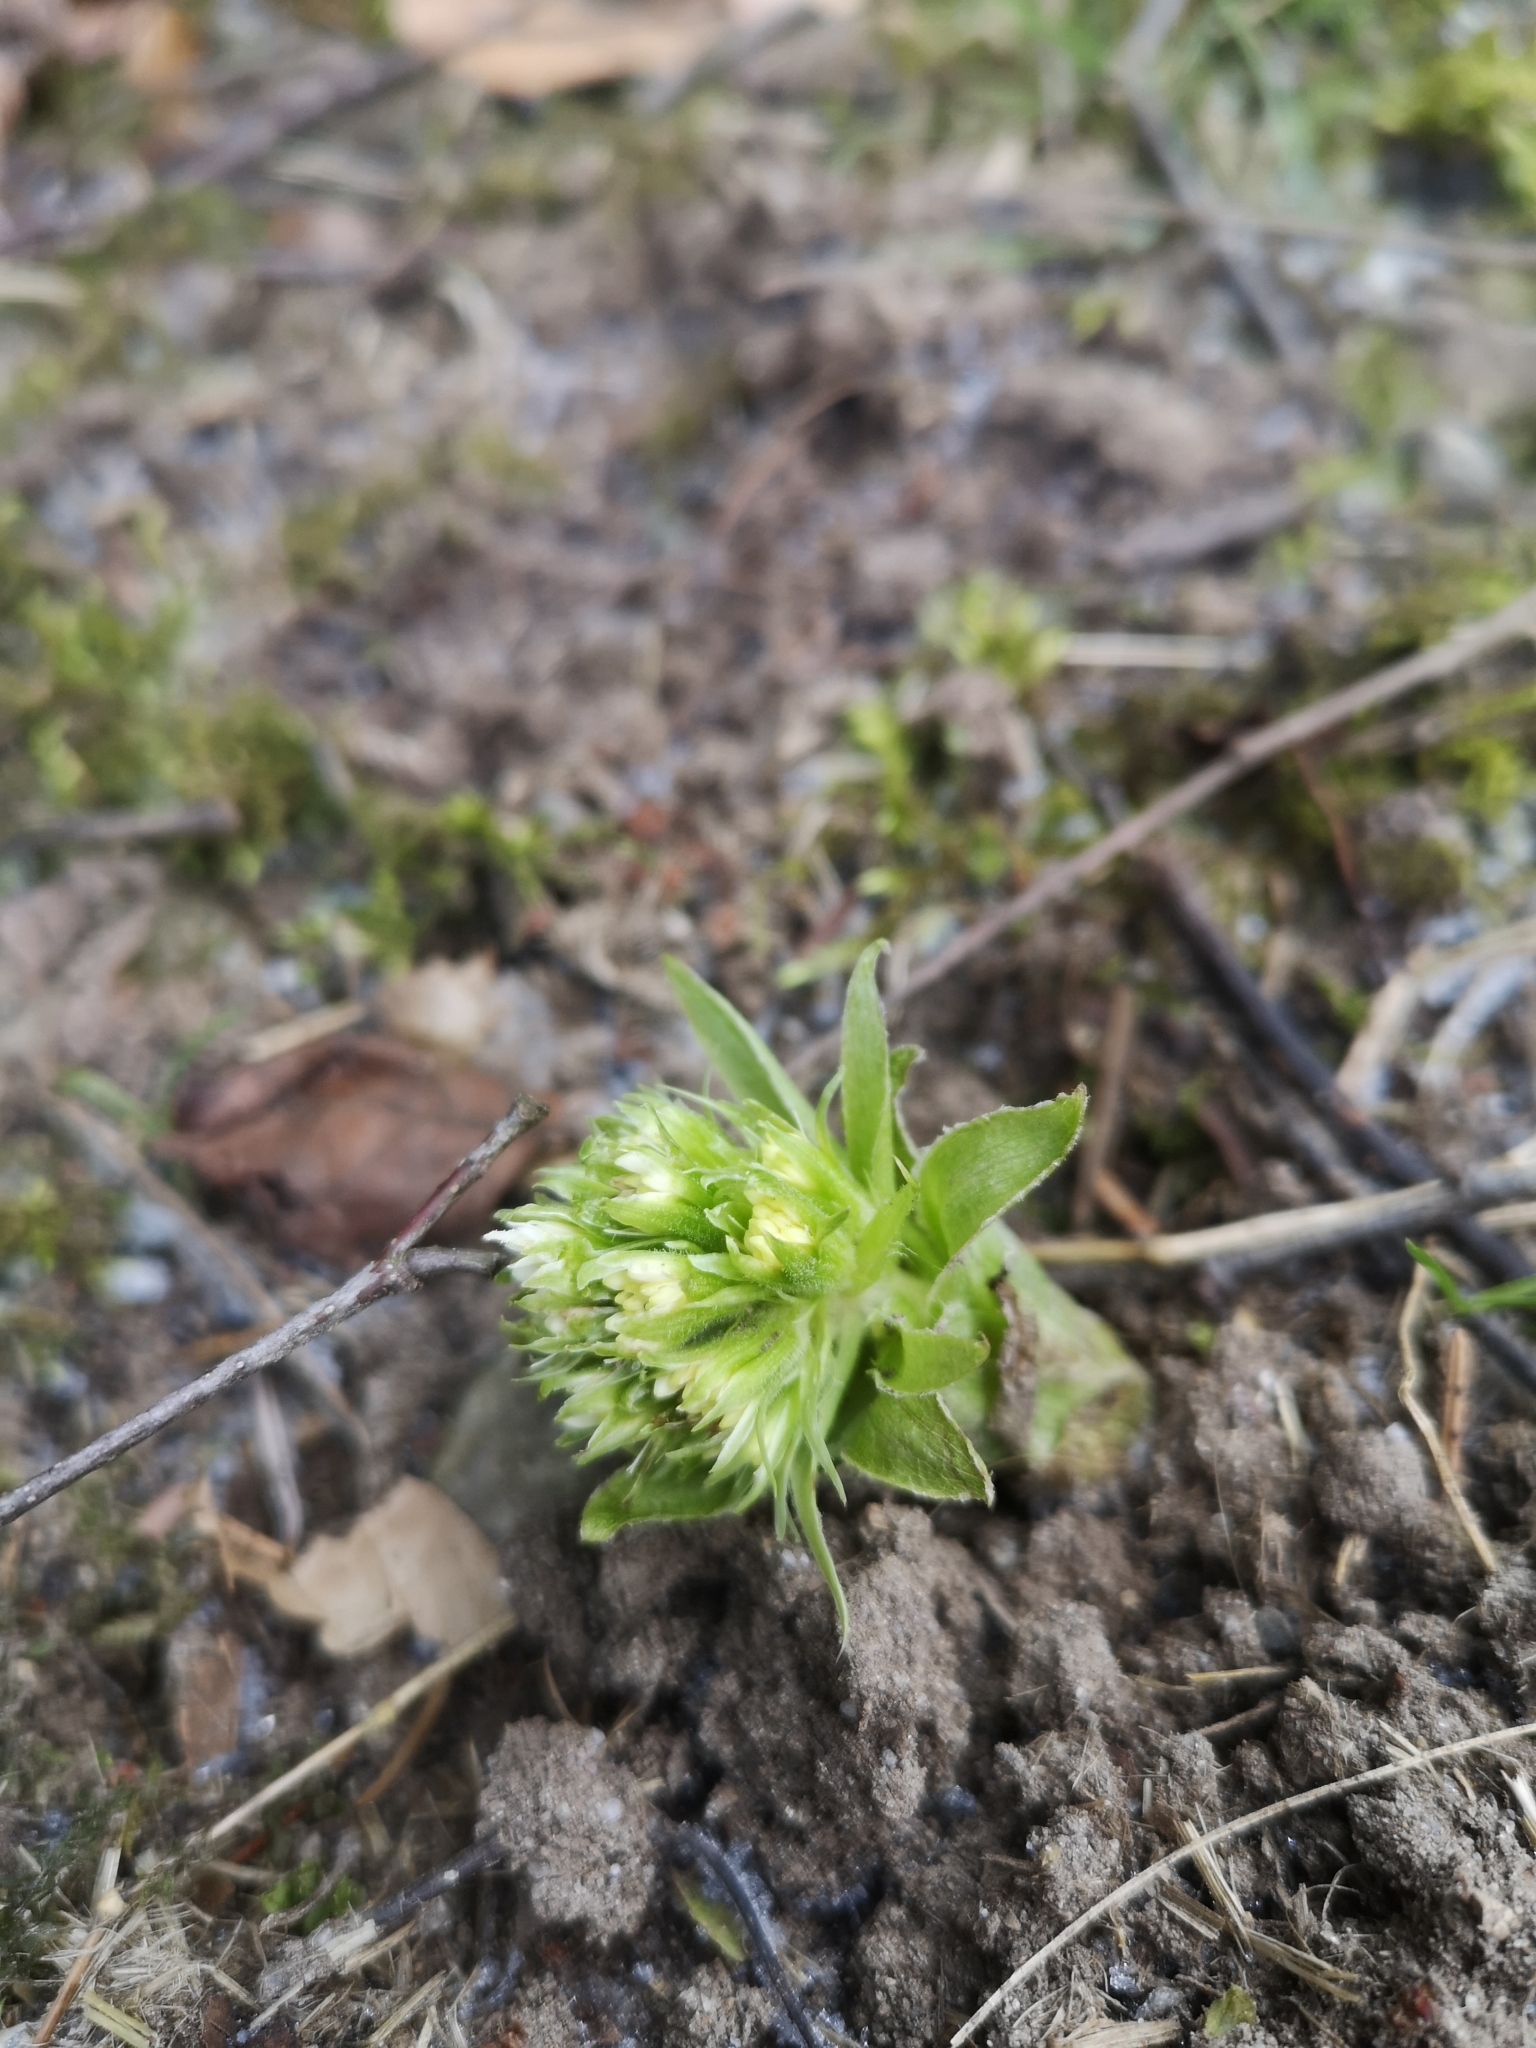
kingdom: Plantae
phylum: Tracheophyta
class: Magnoliopsida
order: Asterales
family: Asteraceae
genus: Petasites
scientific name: Petasites albus
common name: White butterbur
